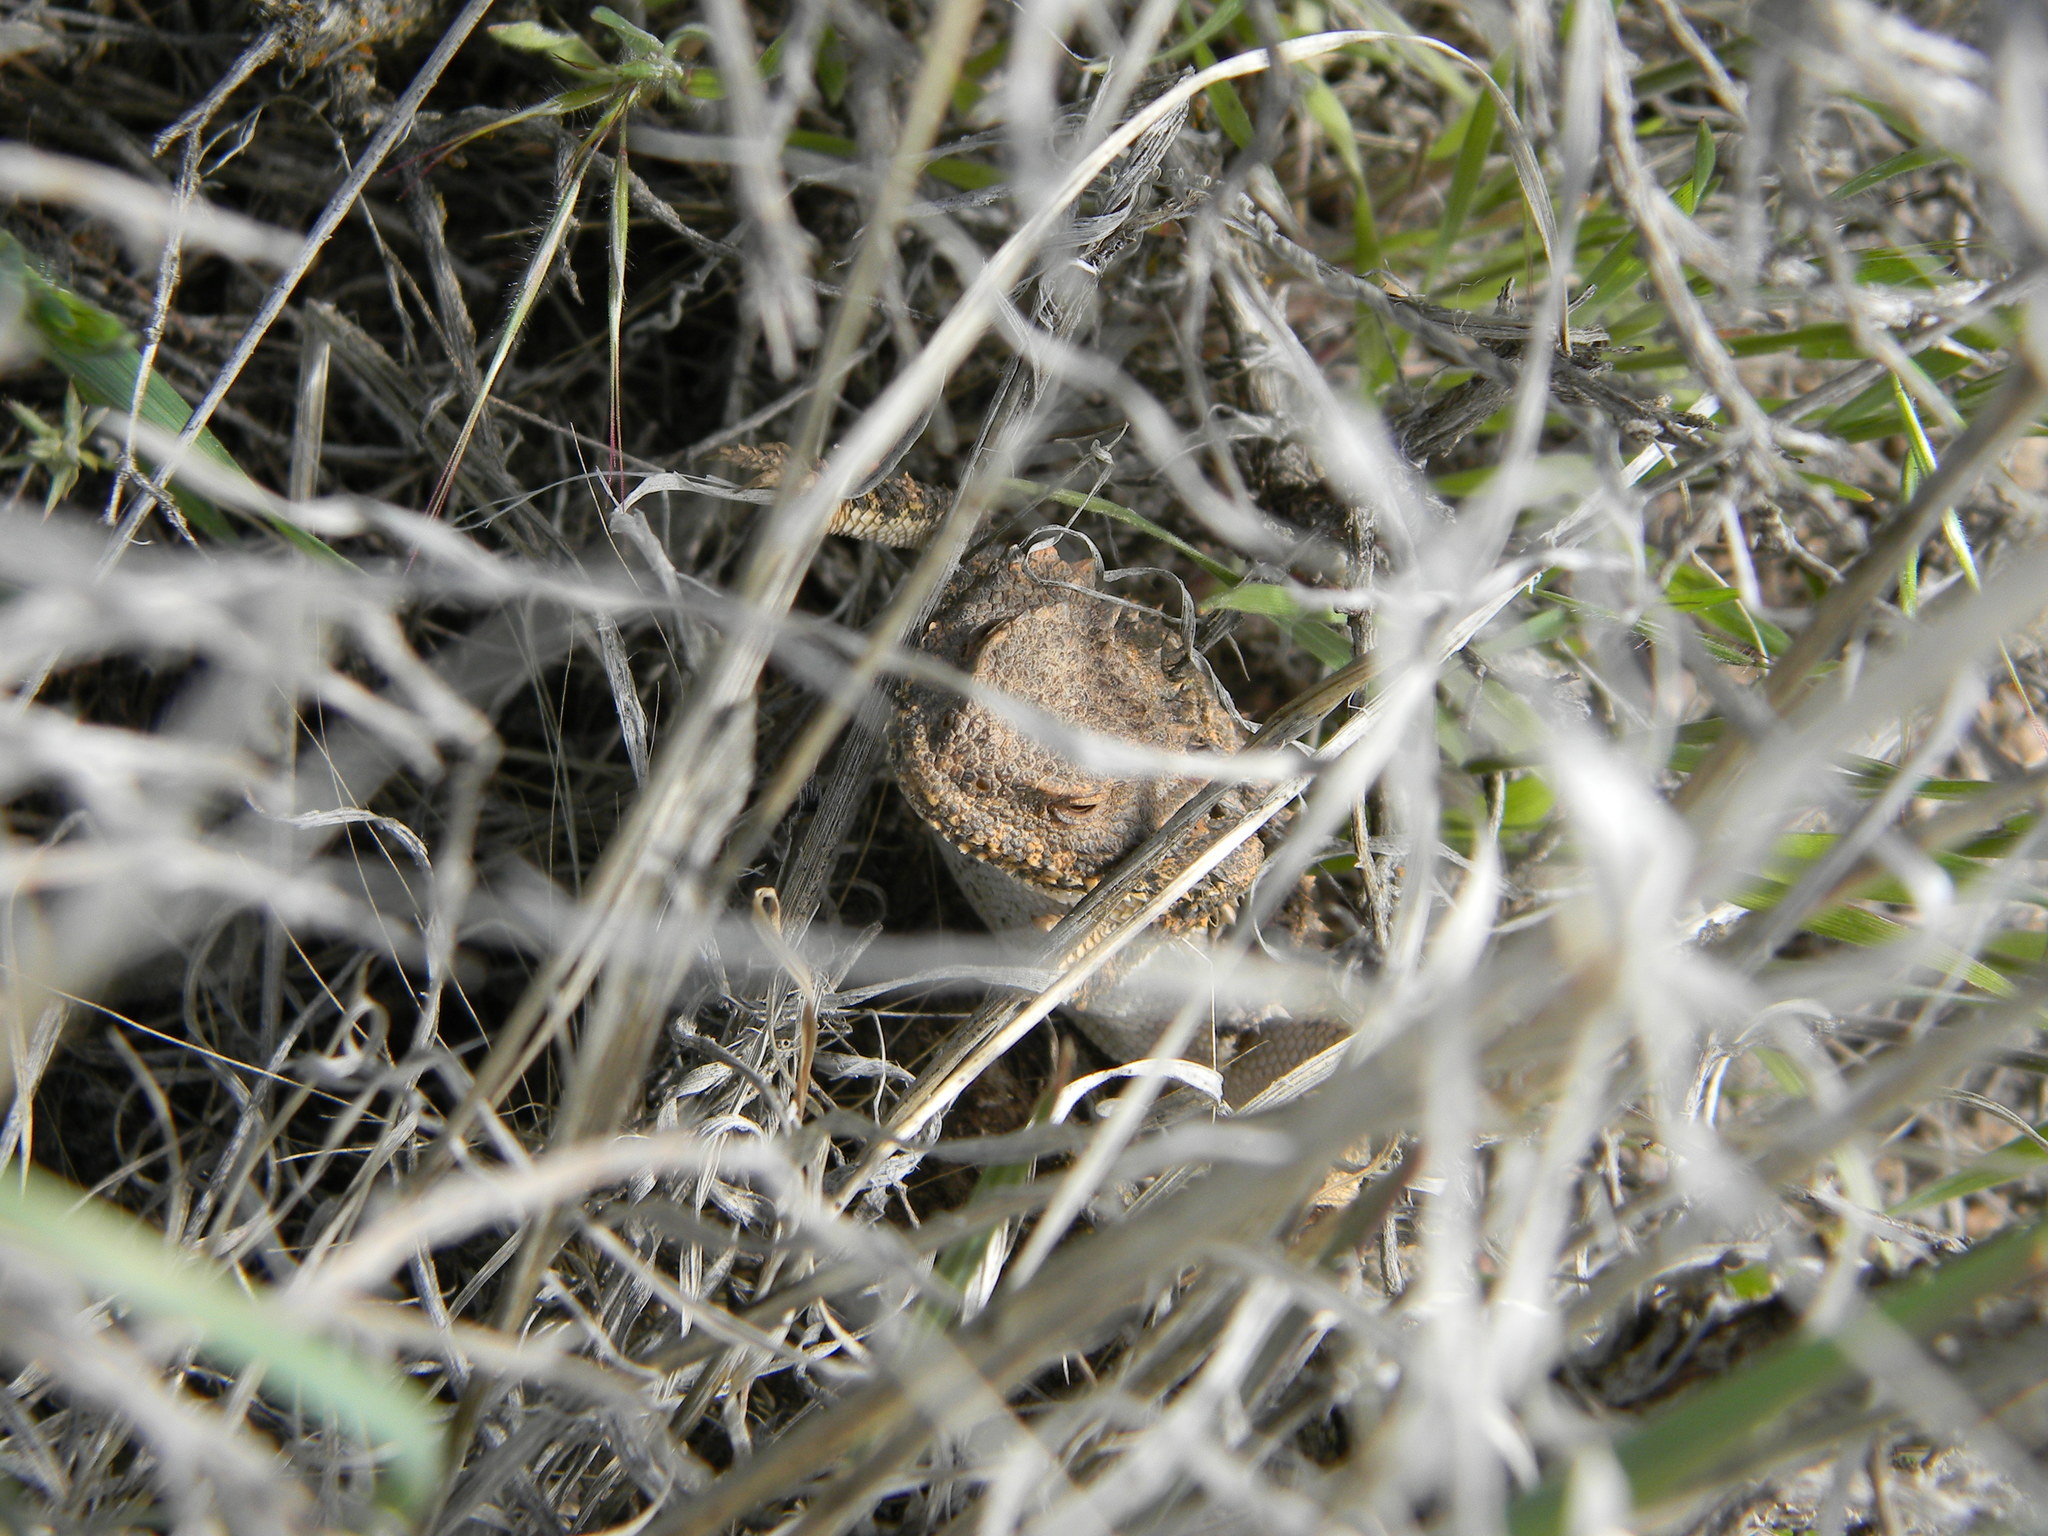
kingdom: Animalia
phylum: Chordata
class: Squamata
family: Phrynosomatidae
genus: Phrynosoma
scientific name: Phrynosoma hernandesi
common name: Greater short-horned lizard
